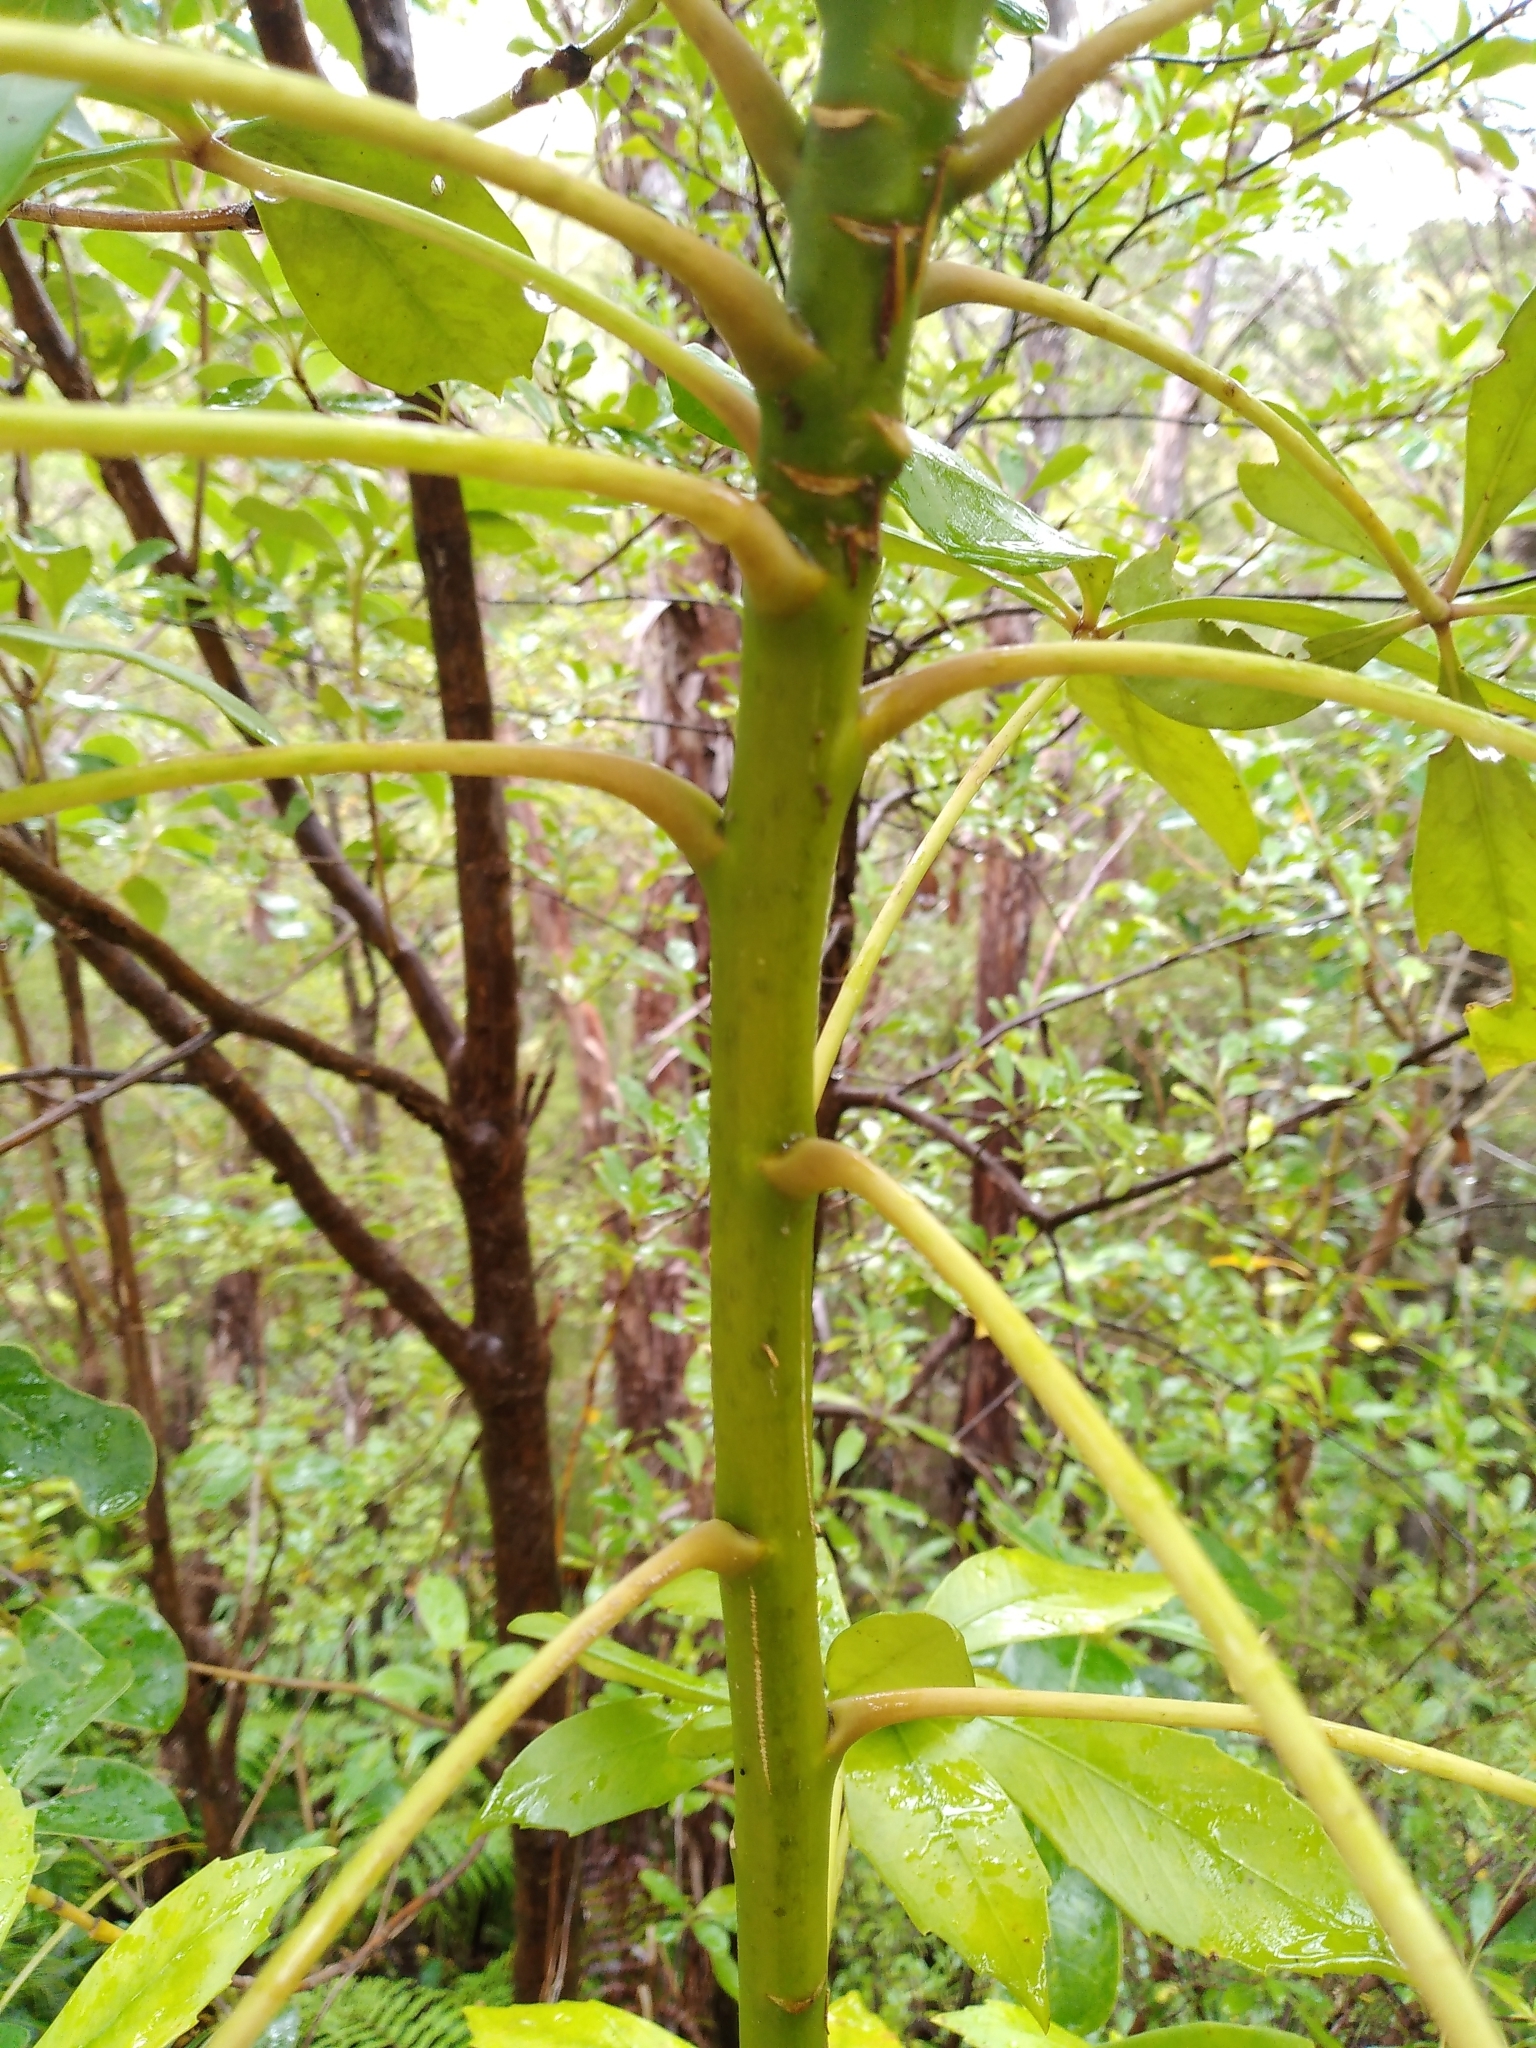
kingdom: Plantae
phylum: Tracheophyta
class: Magnoliopsida
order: Apiales
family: Araliaceae
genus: Pseudopanax
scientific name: Pseudopanax lessonii
